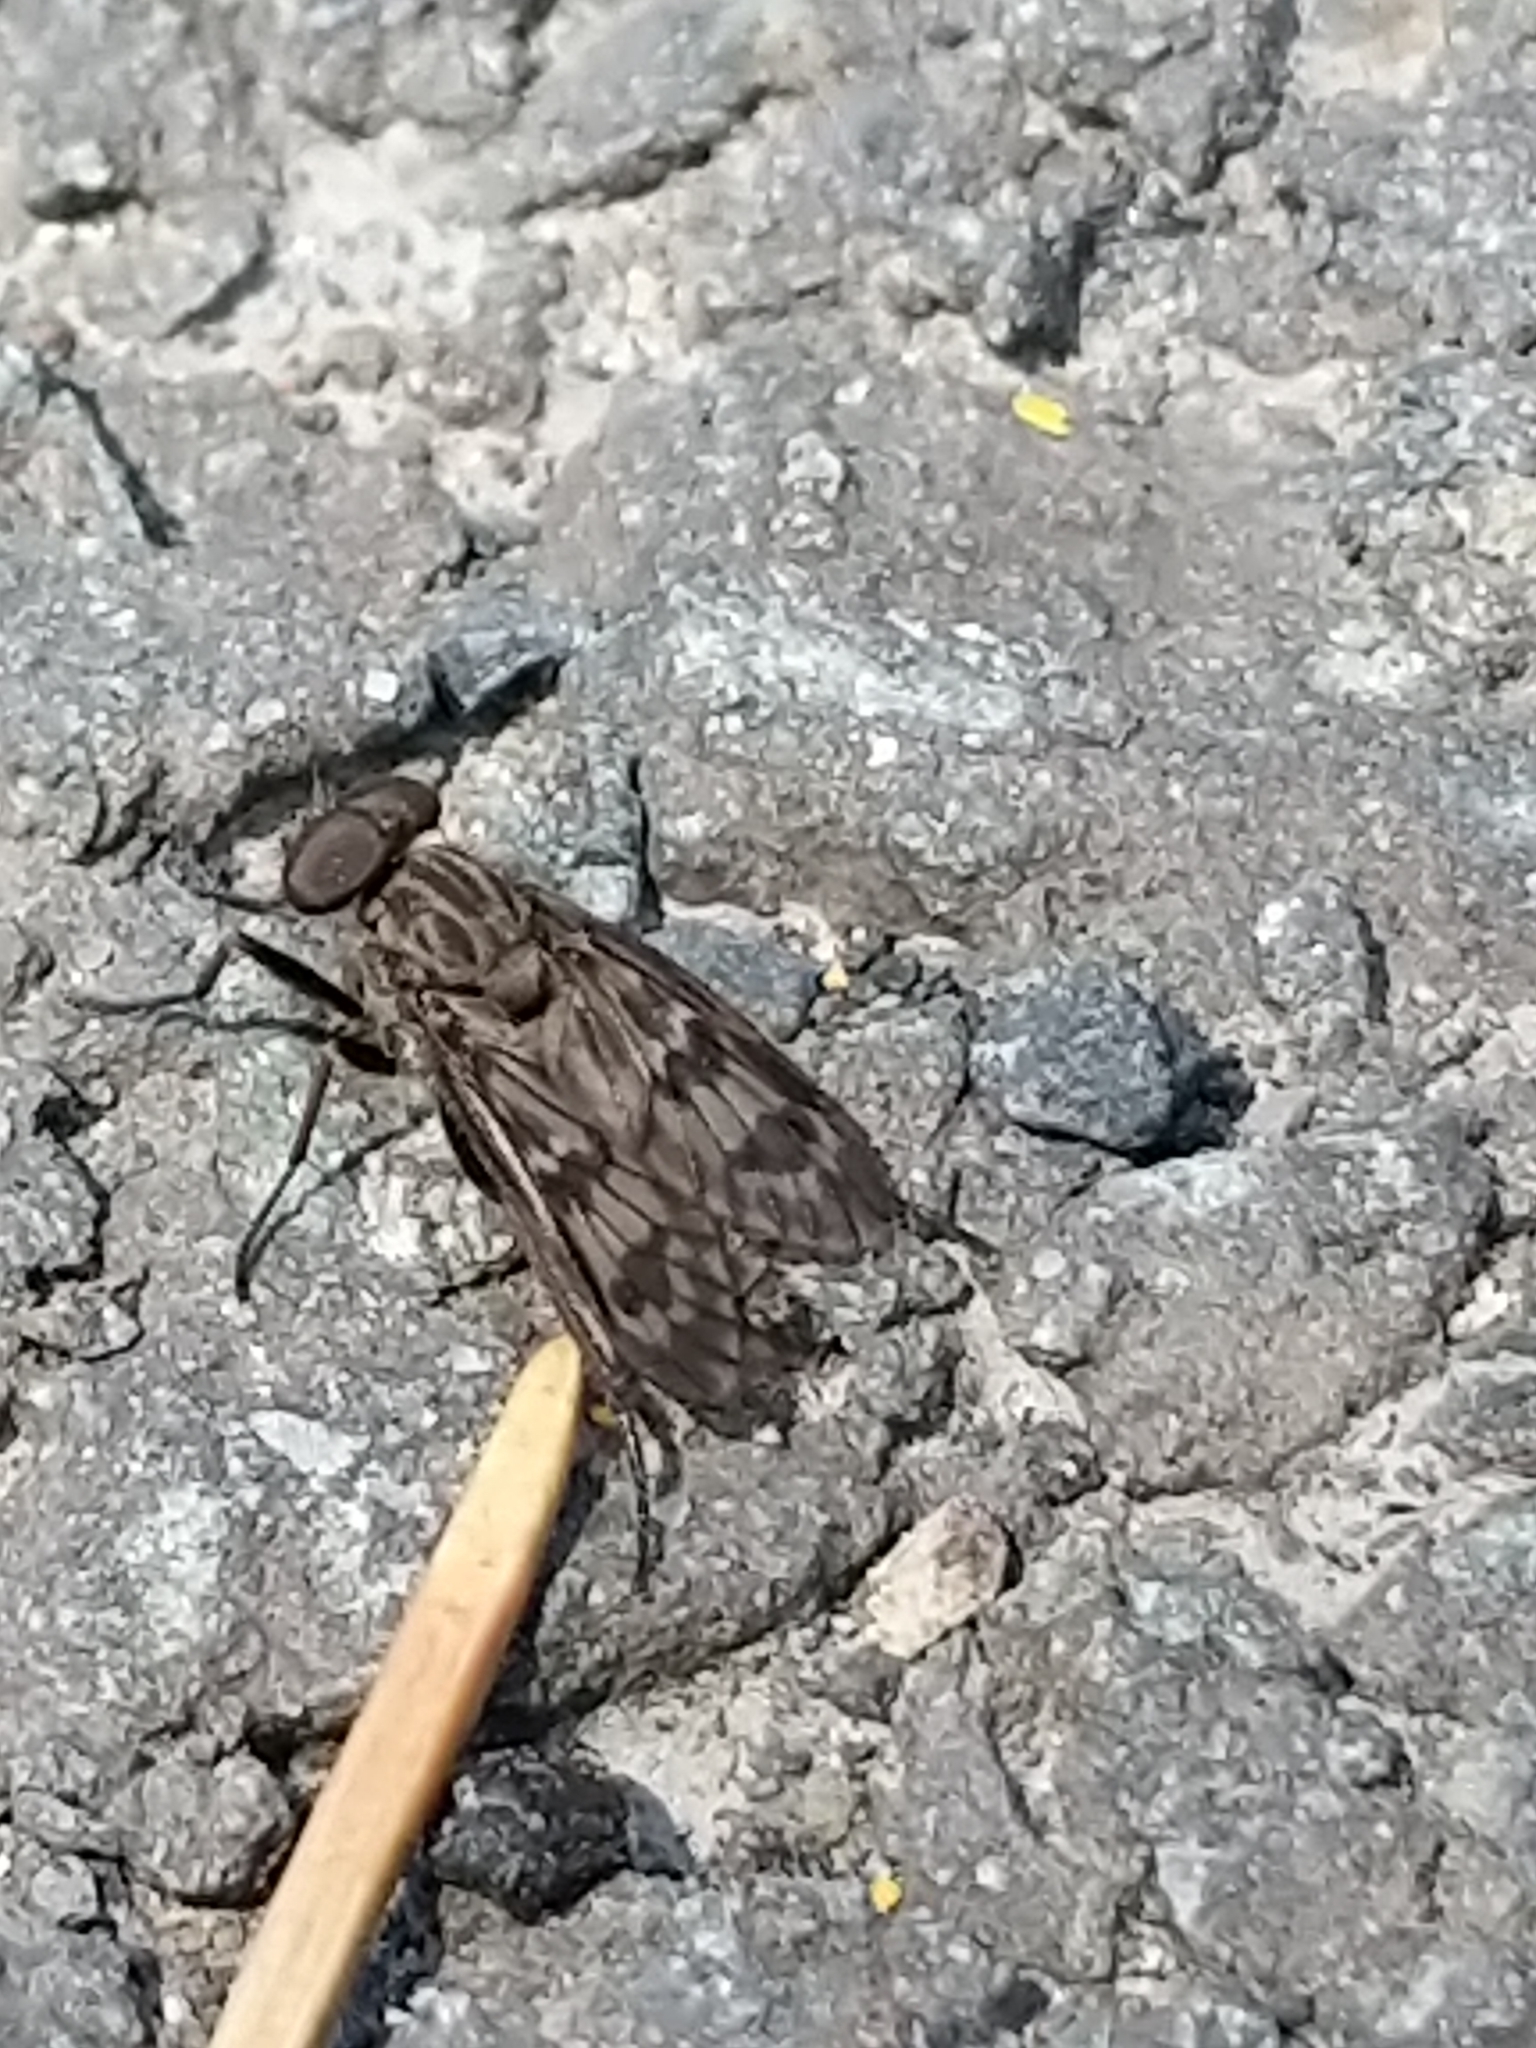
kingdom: Animalia
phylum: Arthropoda
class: Insecta
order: Diptera
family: Rhagionidae
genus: Rhagio
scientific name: Rhagio plumbeus
